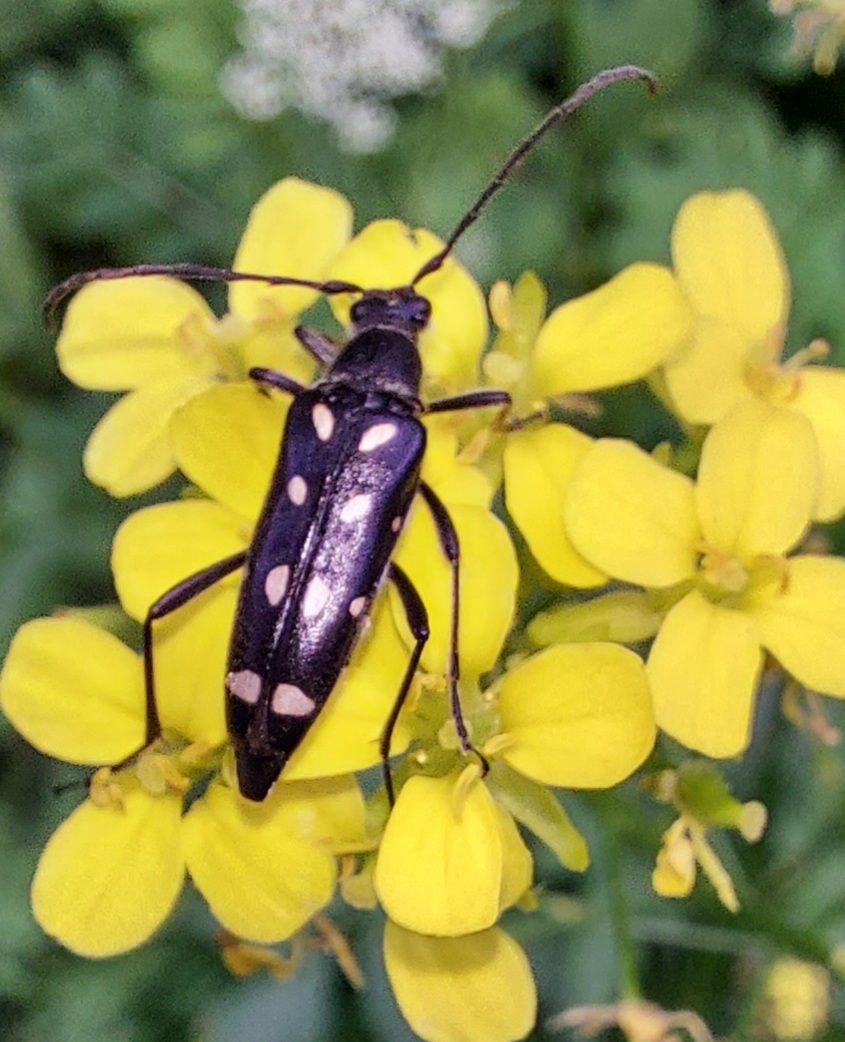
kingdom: Animalia
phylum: Arthropoda
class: Insecta
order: Coleoptera
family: Cerambycidae
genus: Leptura
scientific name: Leptura duodecimguttata
